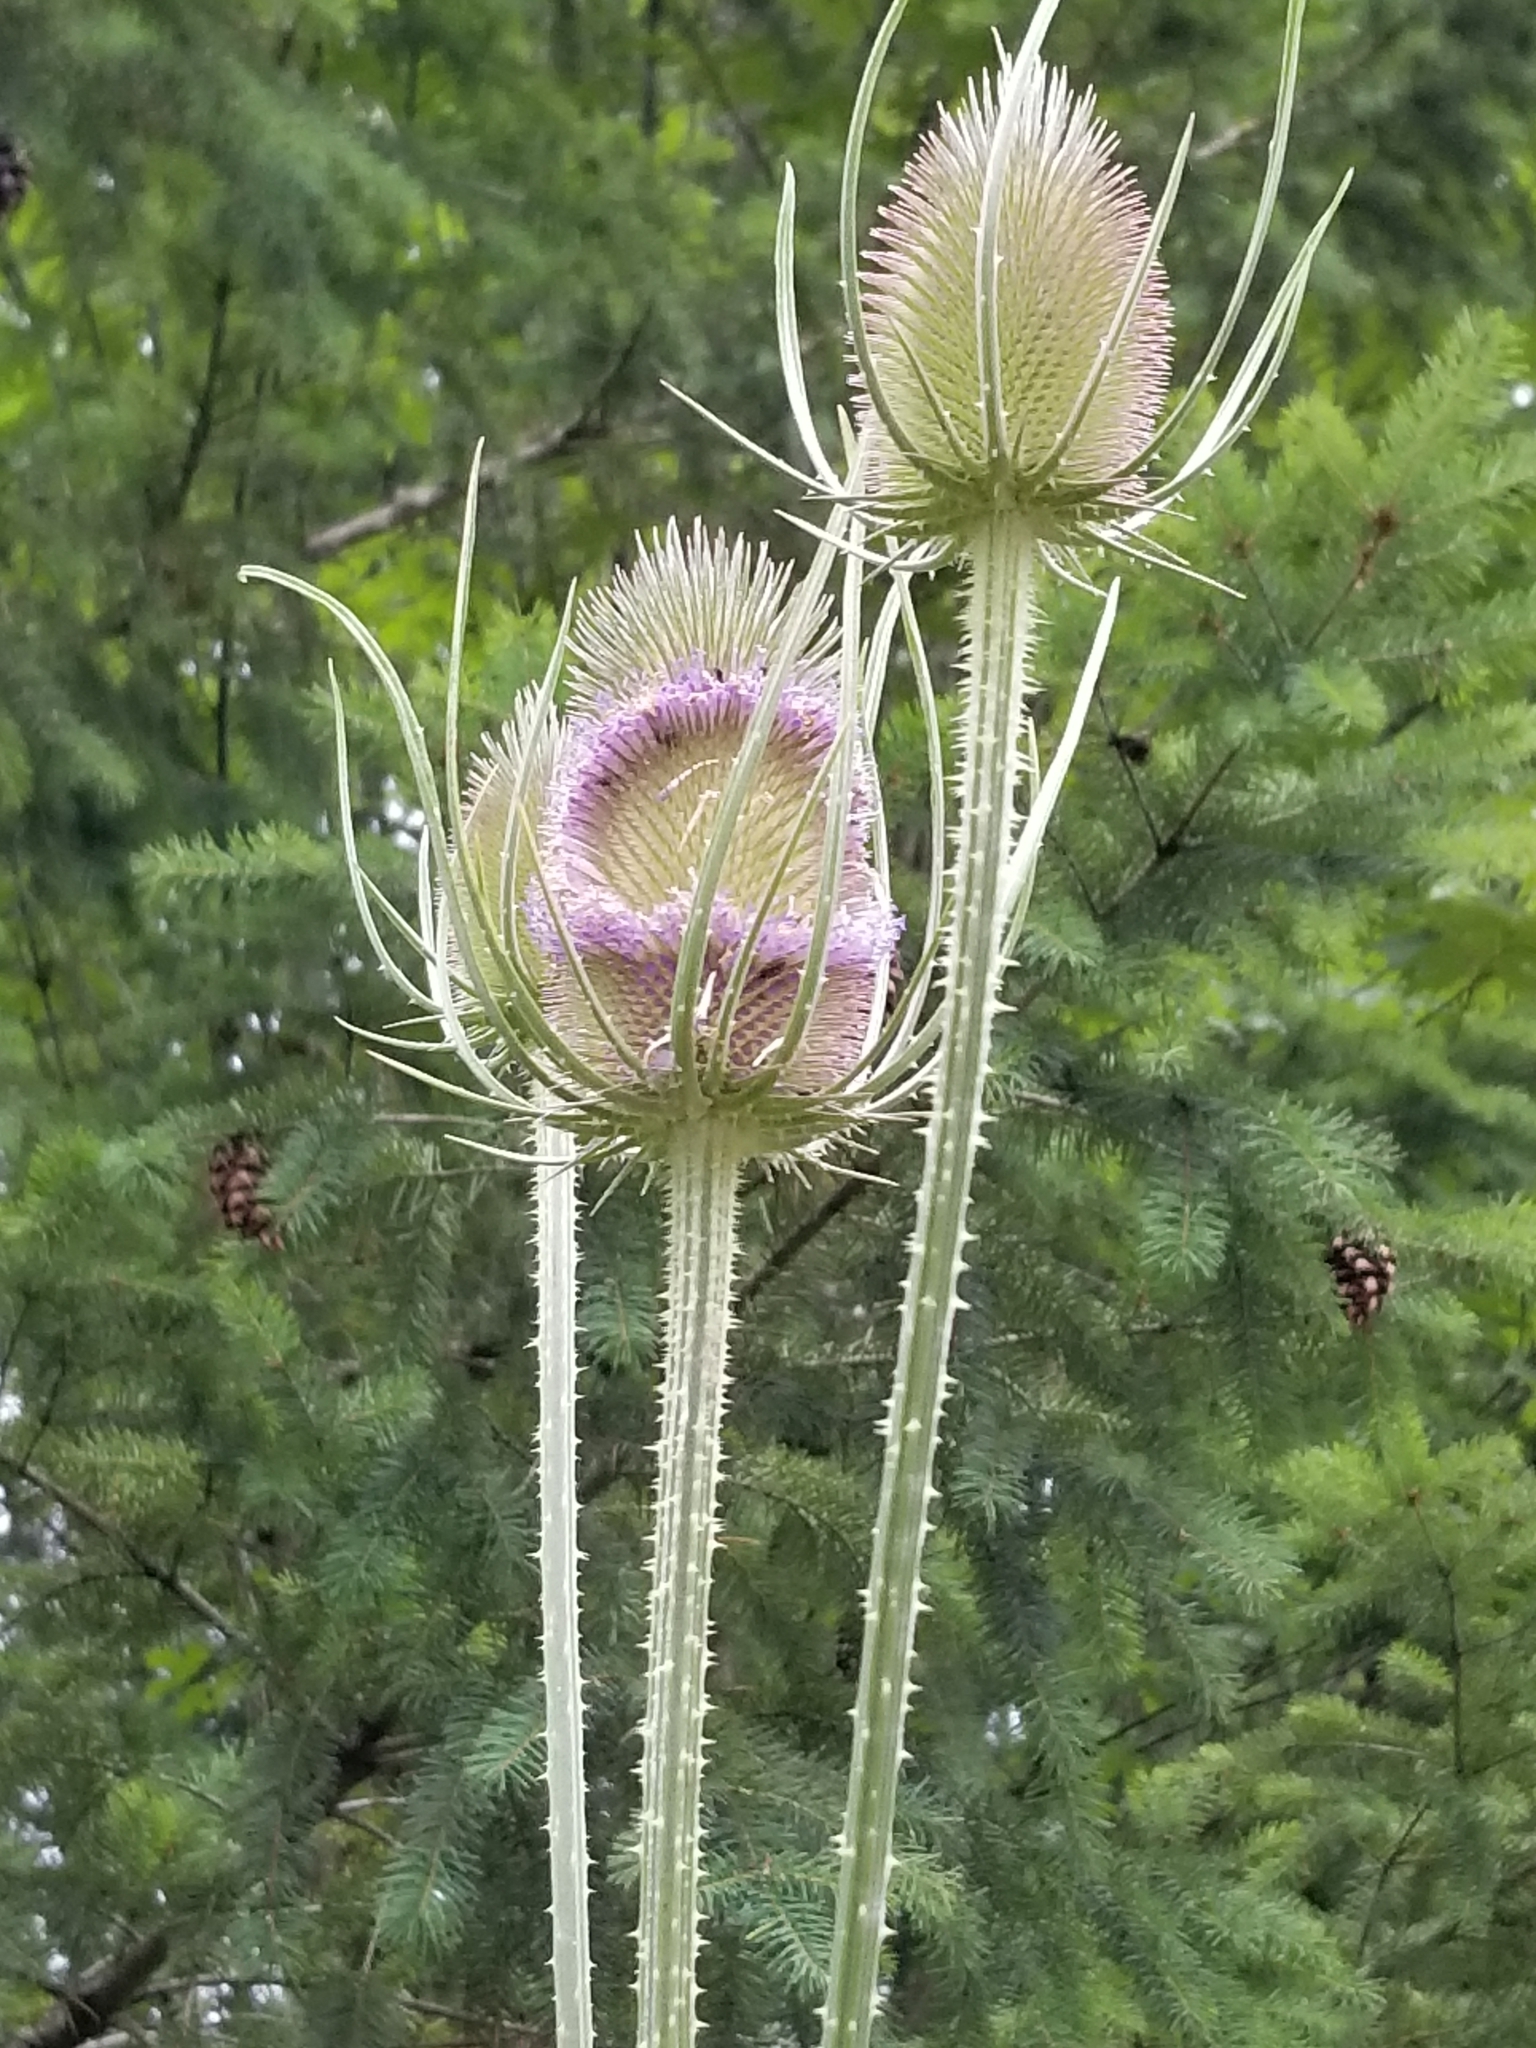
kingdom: Plantae
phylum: Tracheophyta
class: Magnoliopsida
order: Dipsacales
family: Caprifoliaceae
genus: Dipsacus
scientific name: Dipsacus fullonum
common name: Teasel
